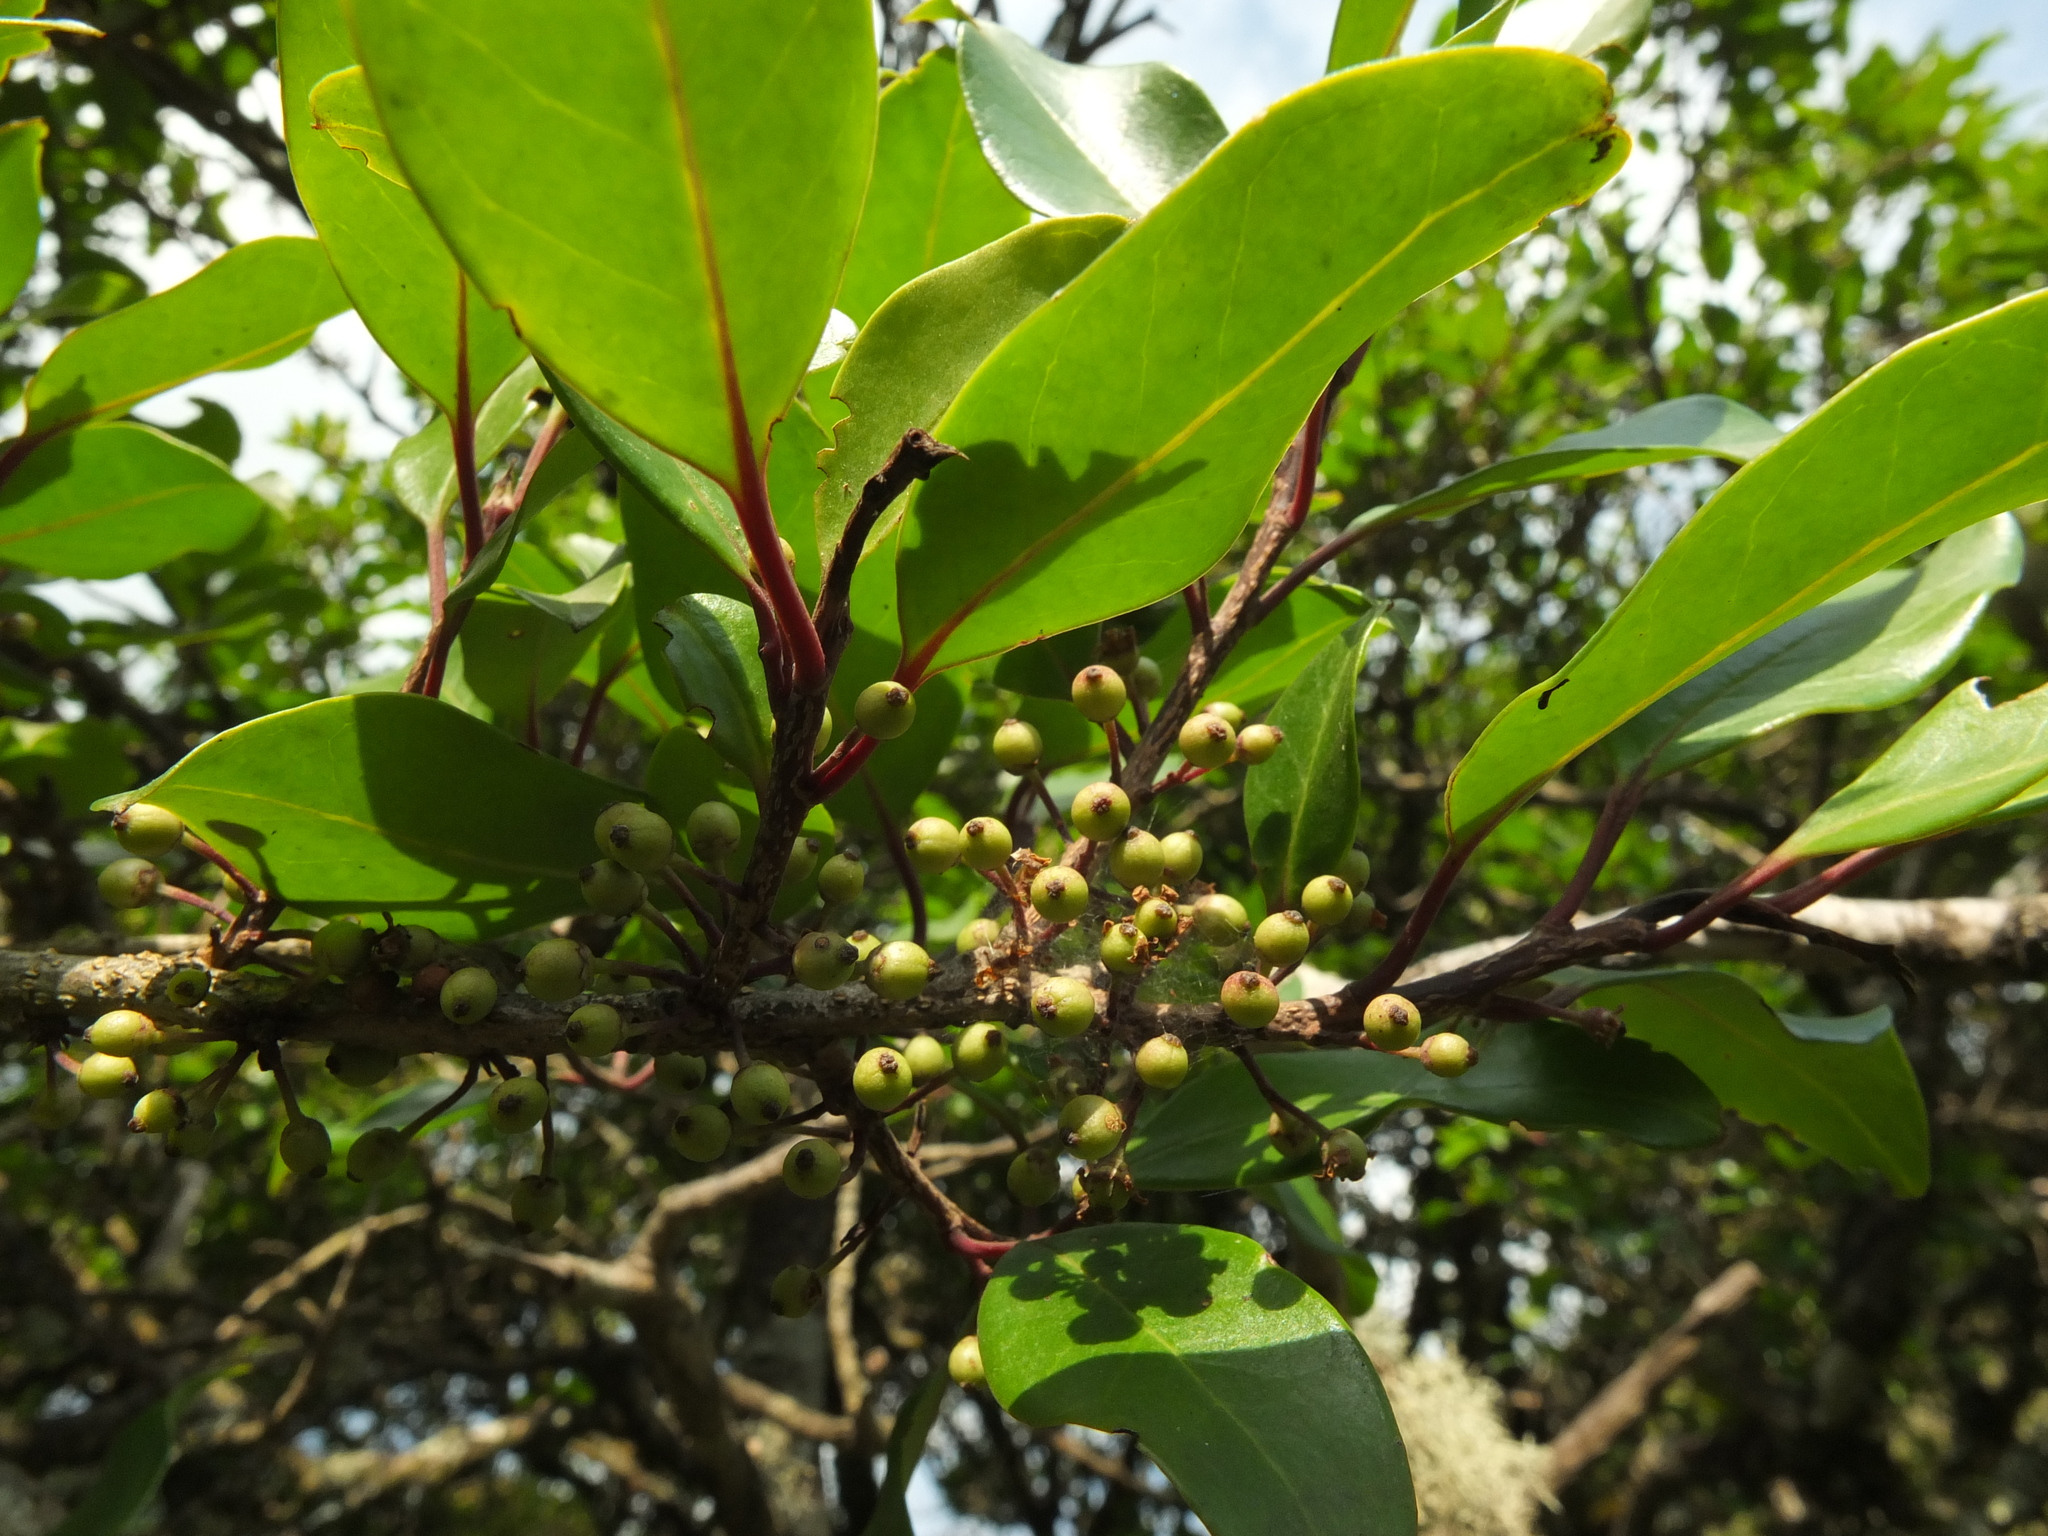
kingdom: Plantae
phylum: Tracheophyta
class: Magnoliopsida
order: Aquifoliales
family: Aquifoliaceae
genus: Ilex
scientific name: Ilex wightiana
